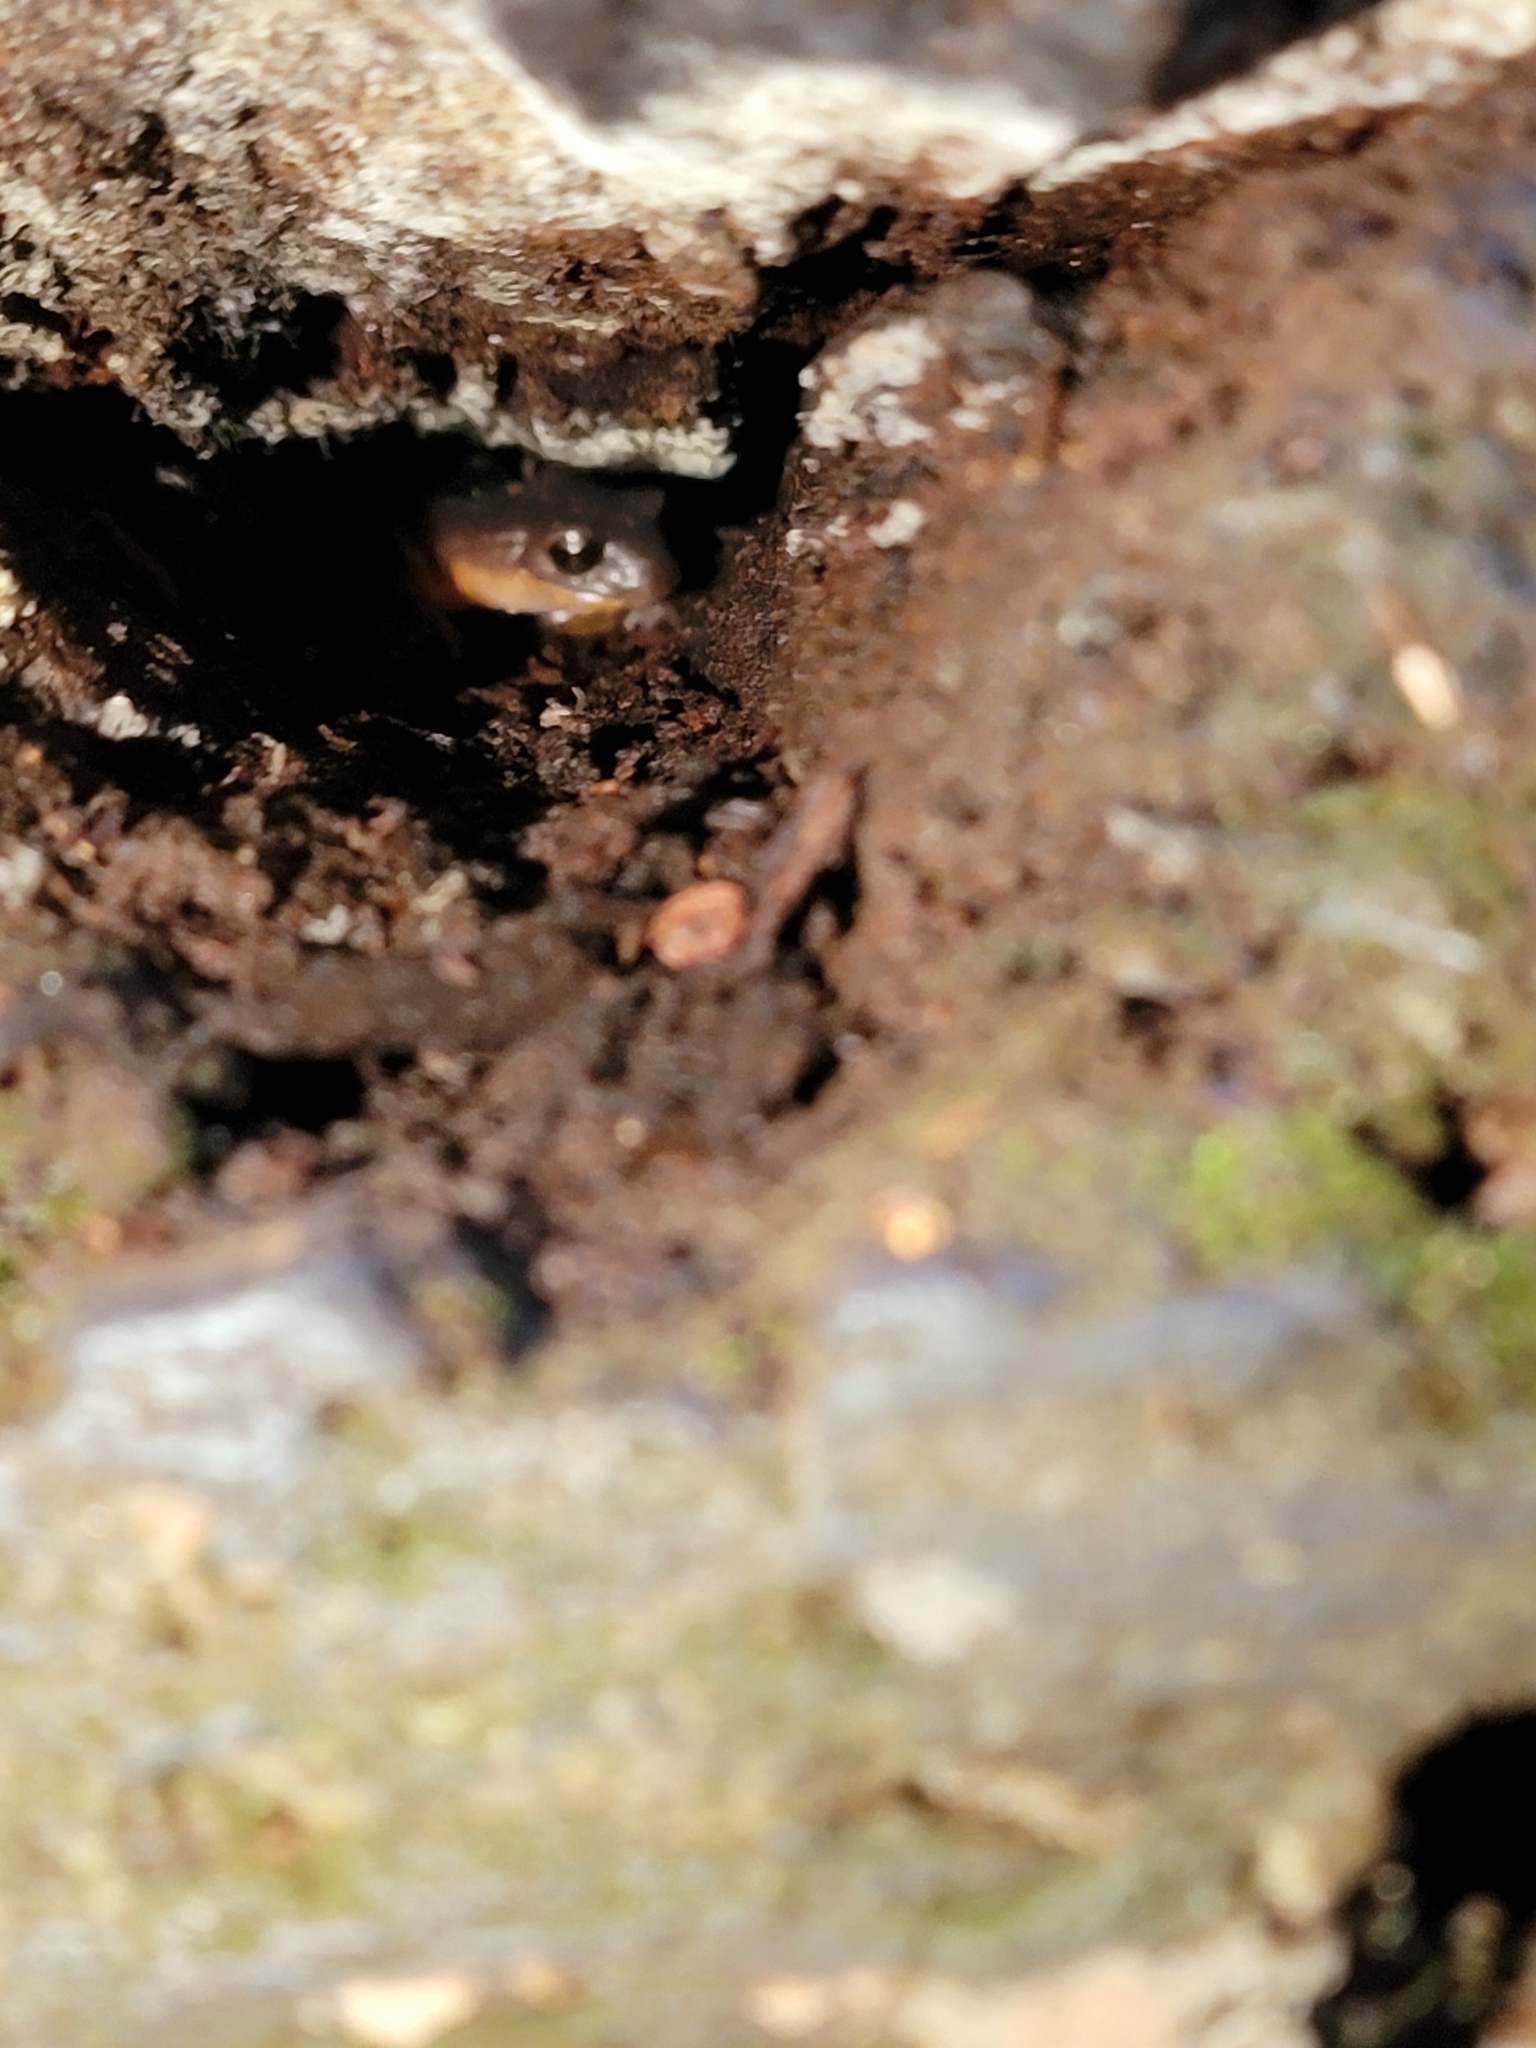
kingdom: Animalia
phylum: Chordata
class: Amphibia
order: Caudata
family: Plethodontidae
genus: Ensatina
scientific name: Ensatina eschscholtzii
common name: Ensatina
